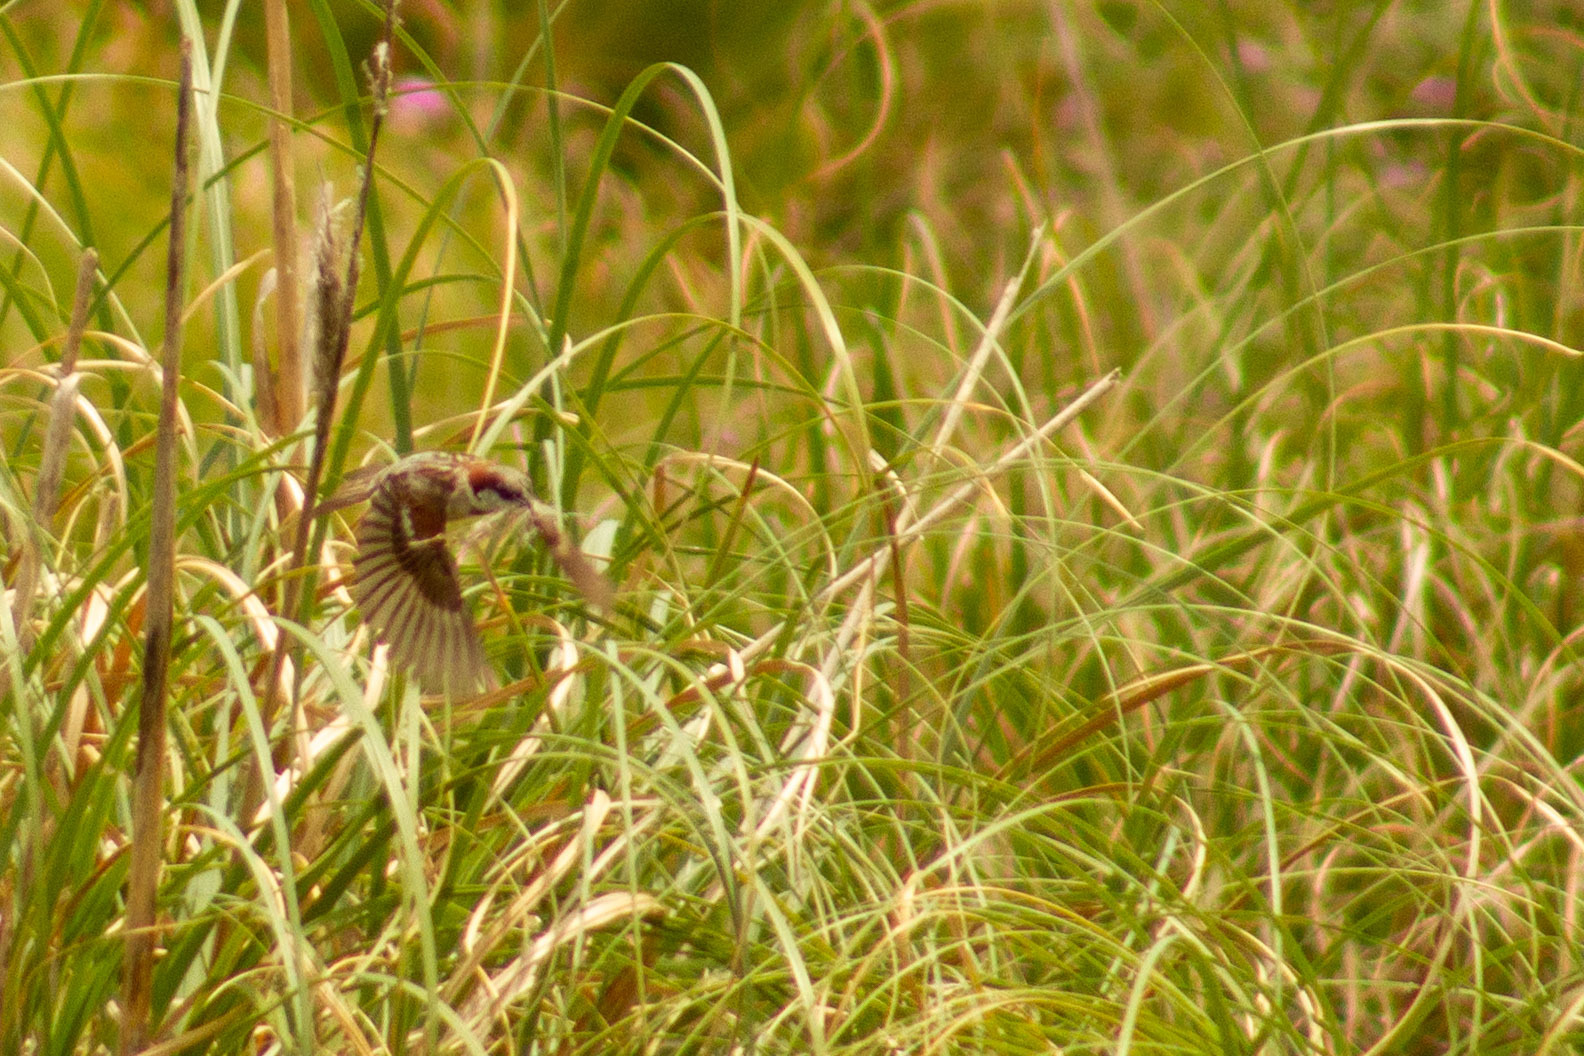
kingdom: Animalia
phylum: Chordata
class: Aves
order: Passeriformes
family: Passeridae
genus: Passer
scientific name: Passer domesticus
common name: House sparrow
